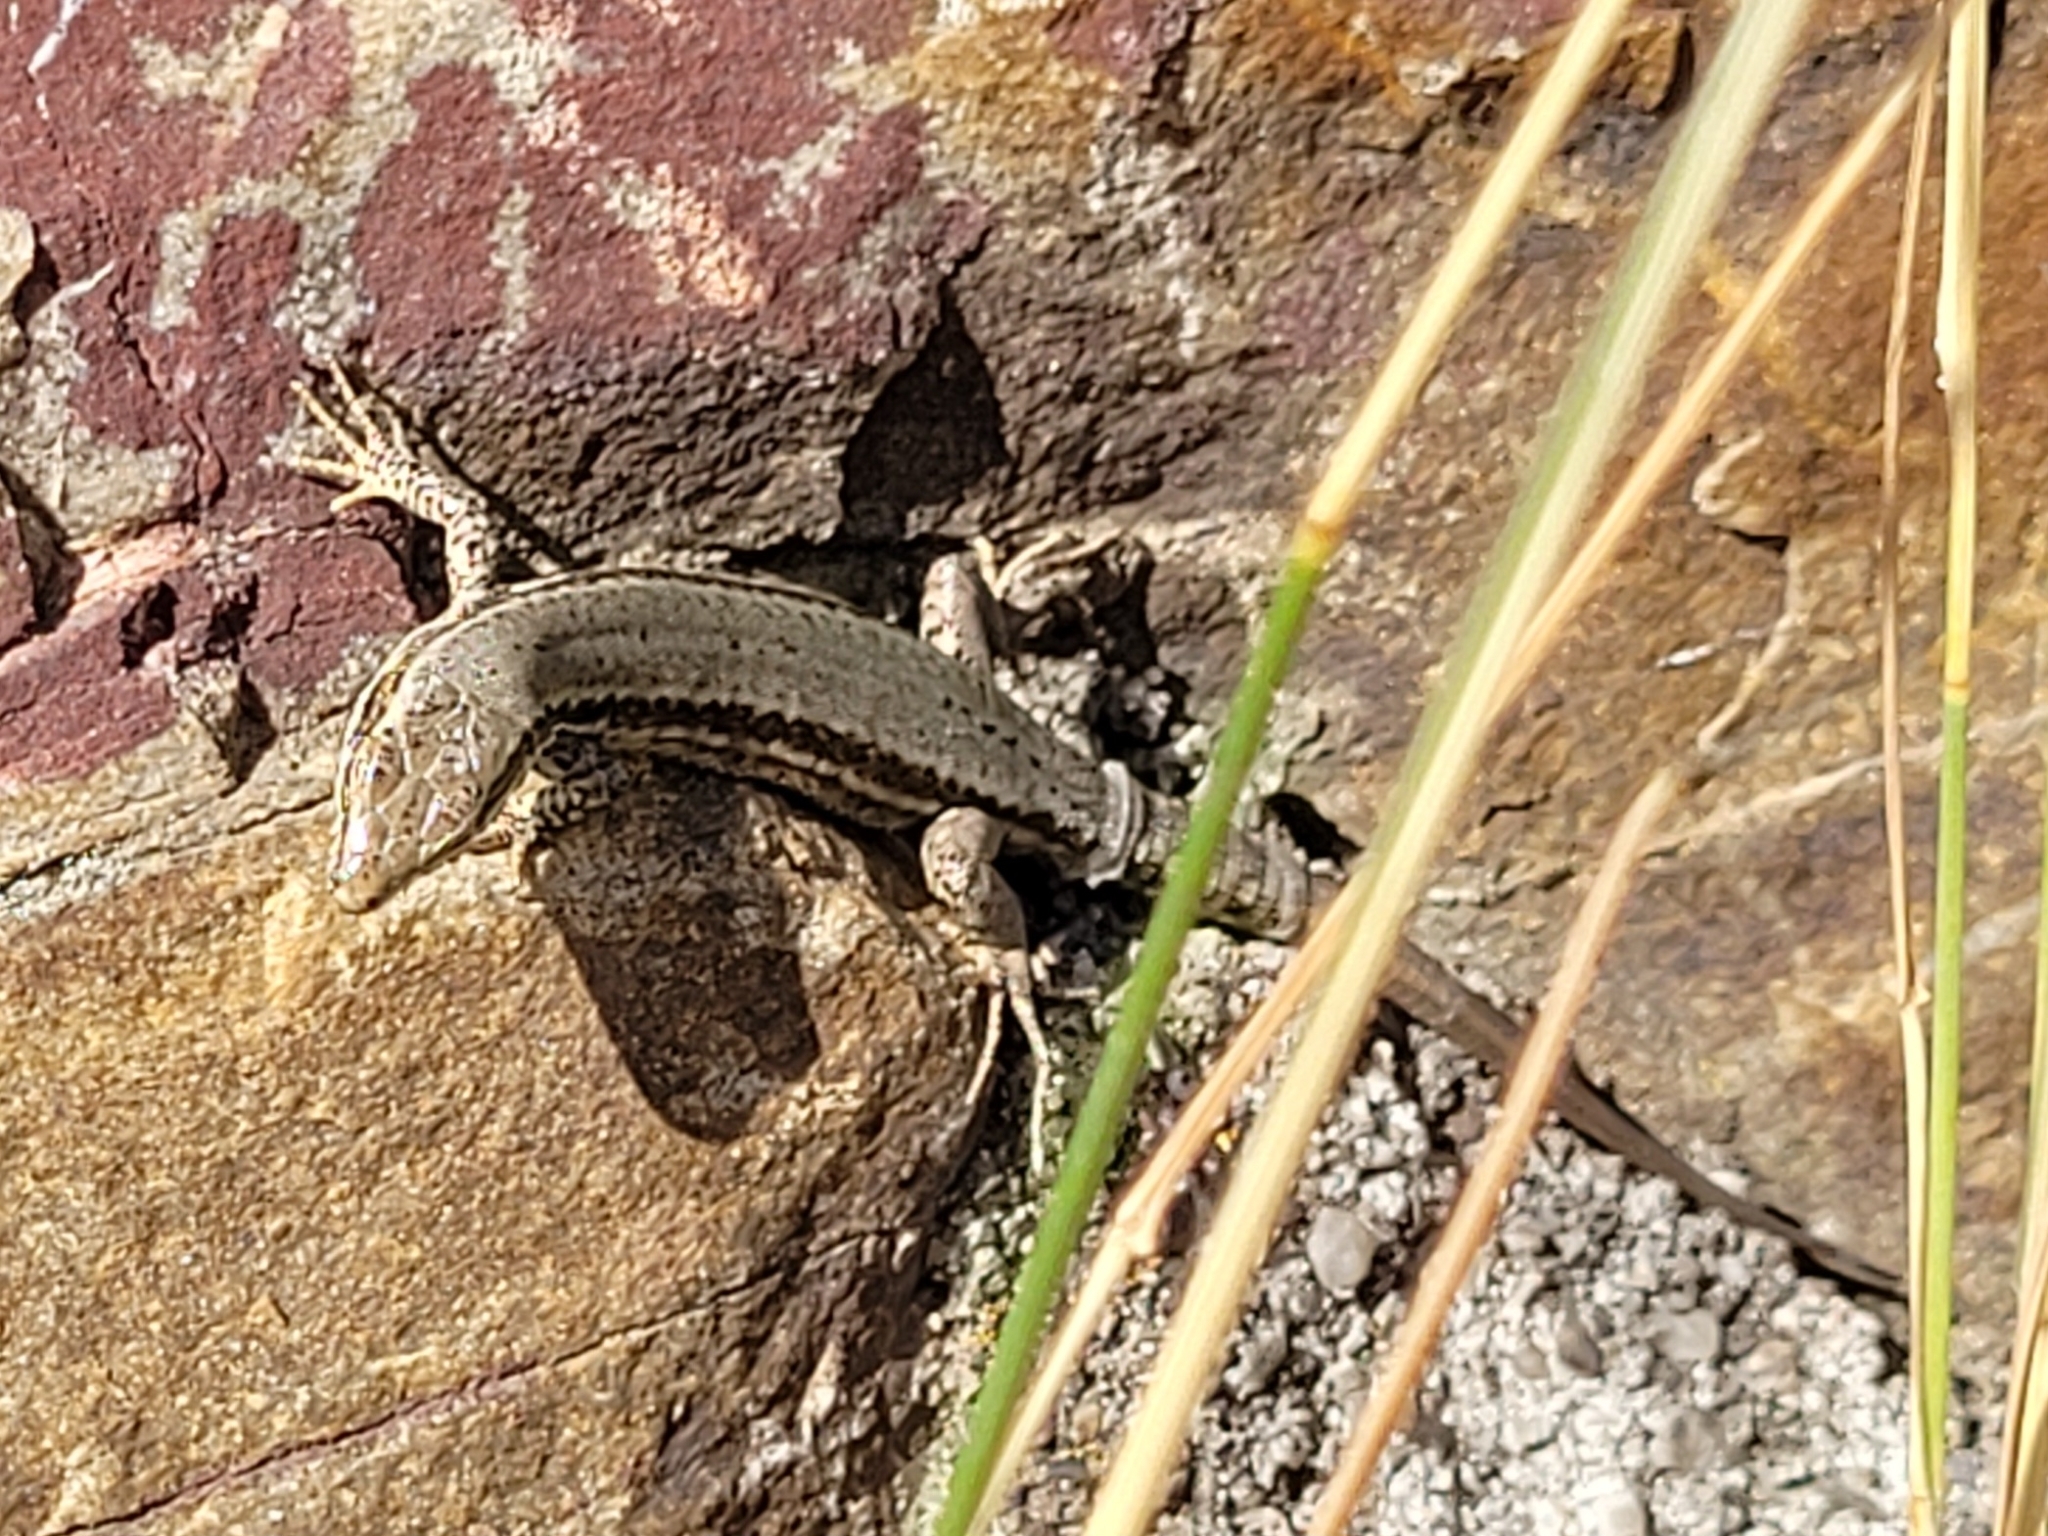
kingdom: Animalia
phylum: Chordata
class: Squamata
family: Lacertidae
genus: Podarcis
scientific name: Podarcis muralis
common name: Common wall lizard
